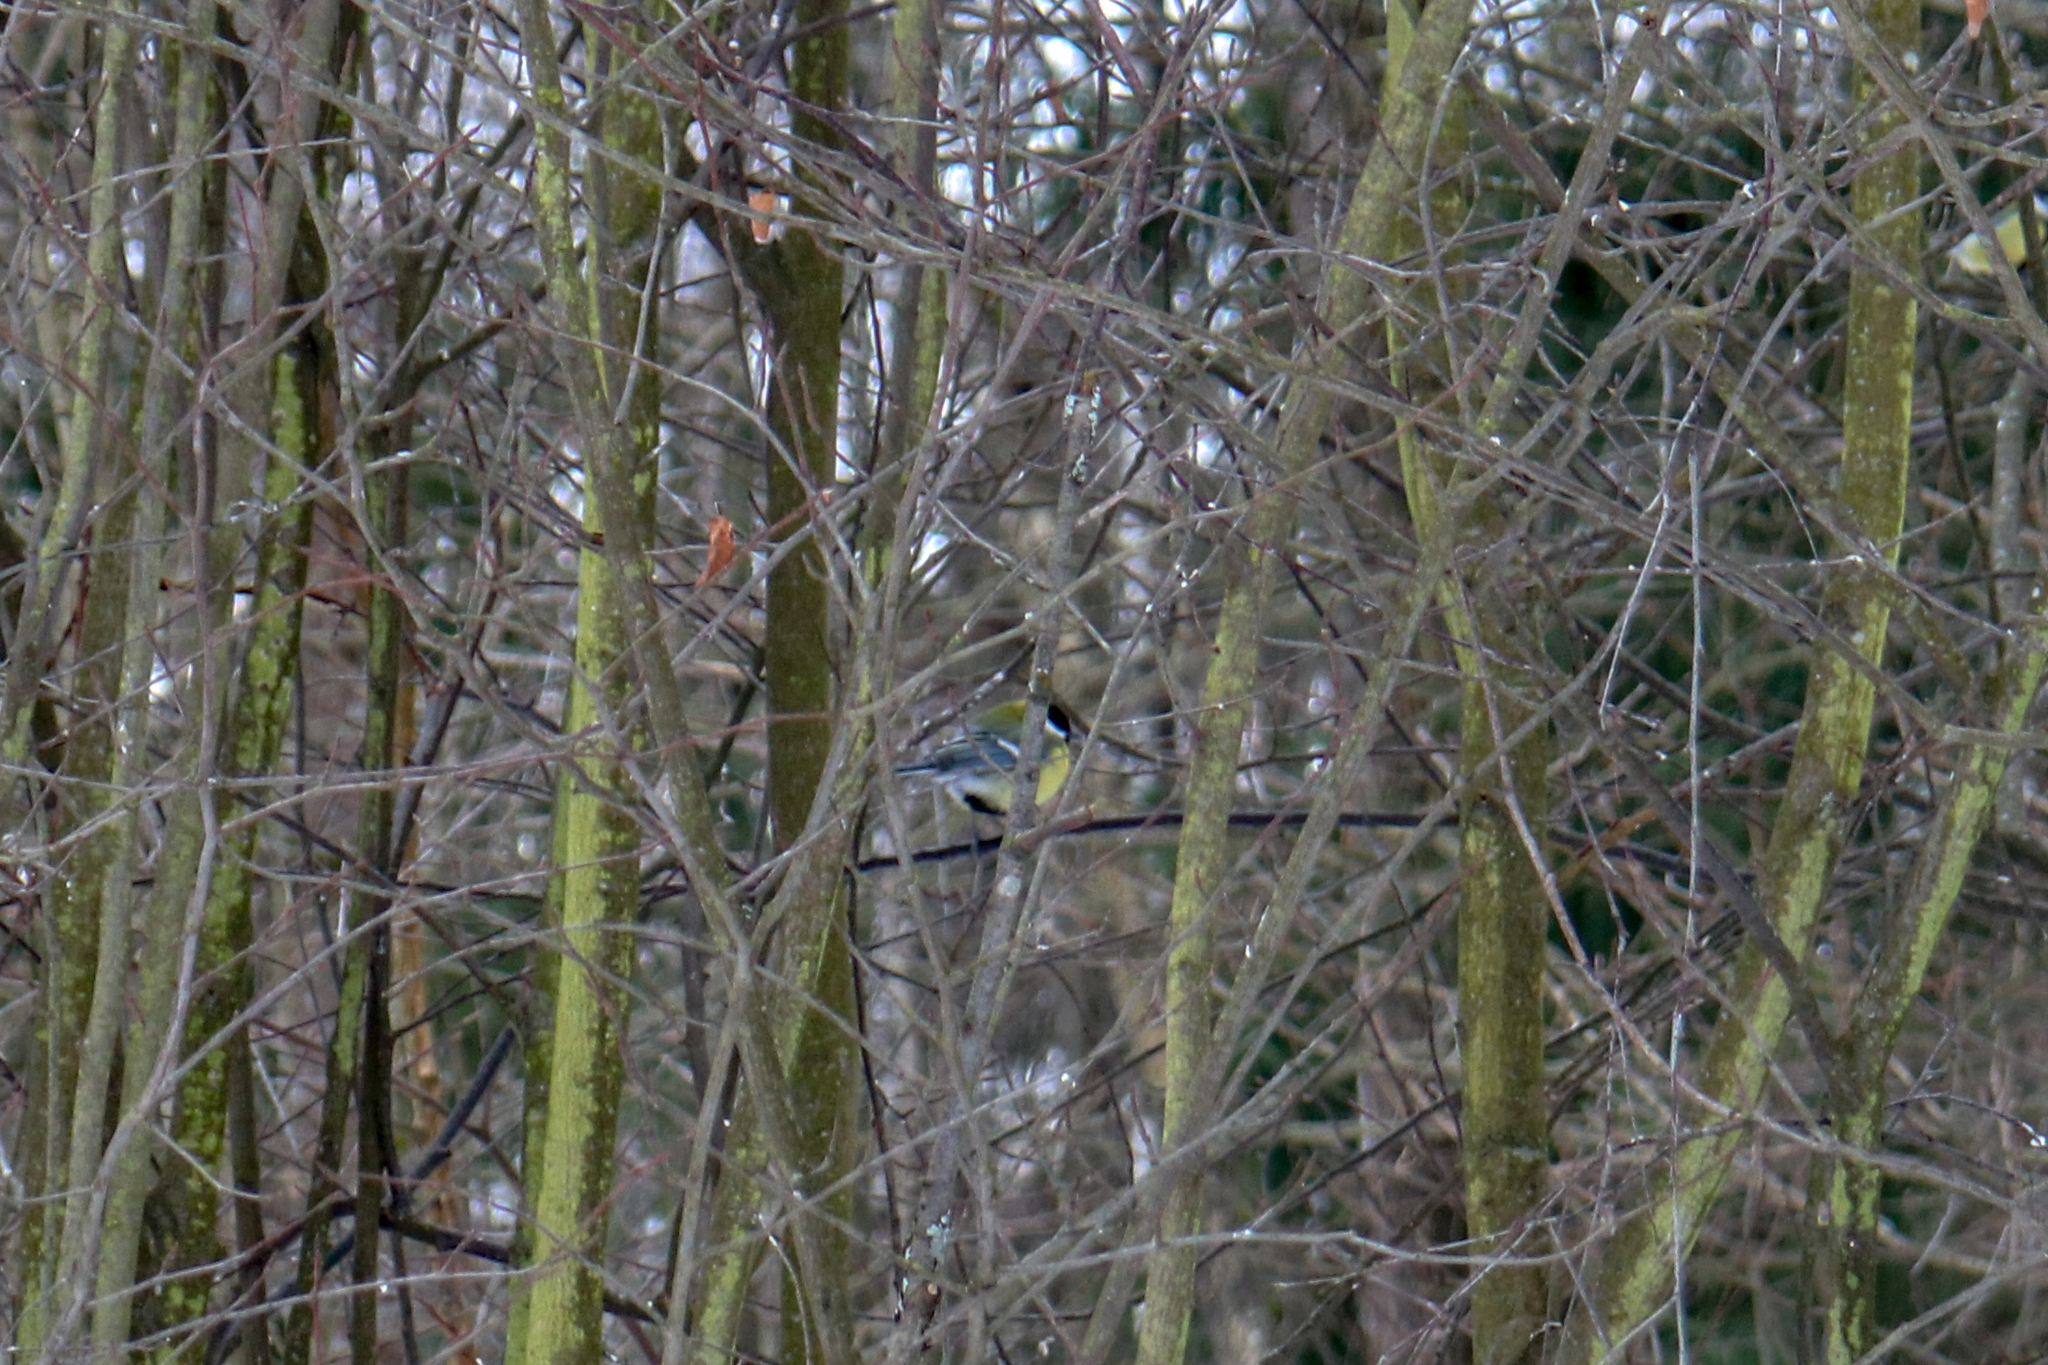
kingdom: Animalia
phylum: Chordata
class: Aves
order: Passeriformes
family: Paridae
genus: Parus
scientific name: Parus major
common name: Great tit
